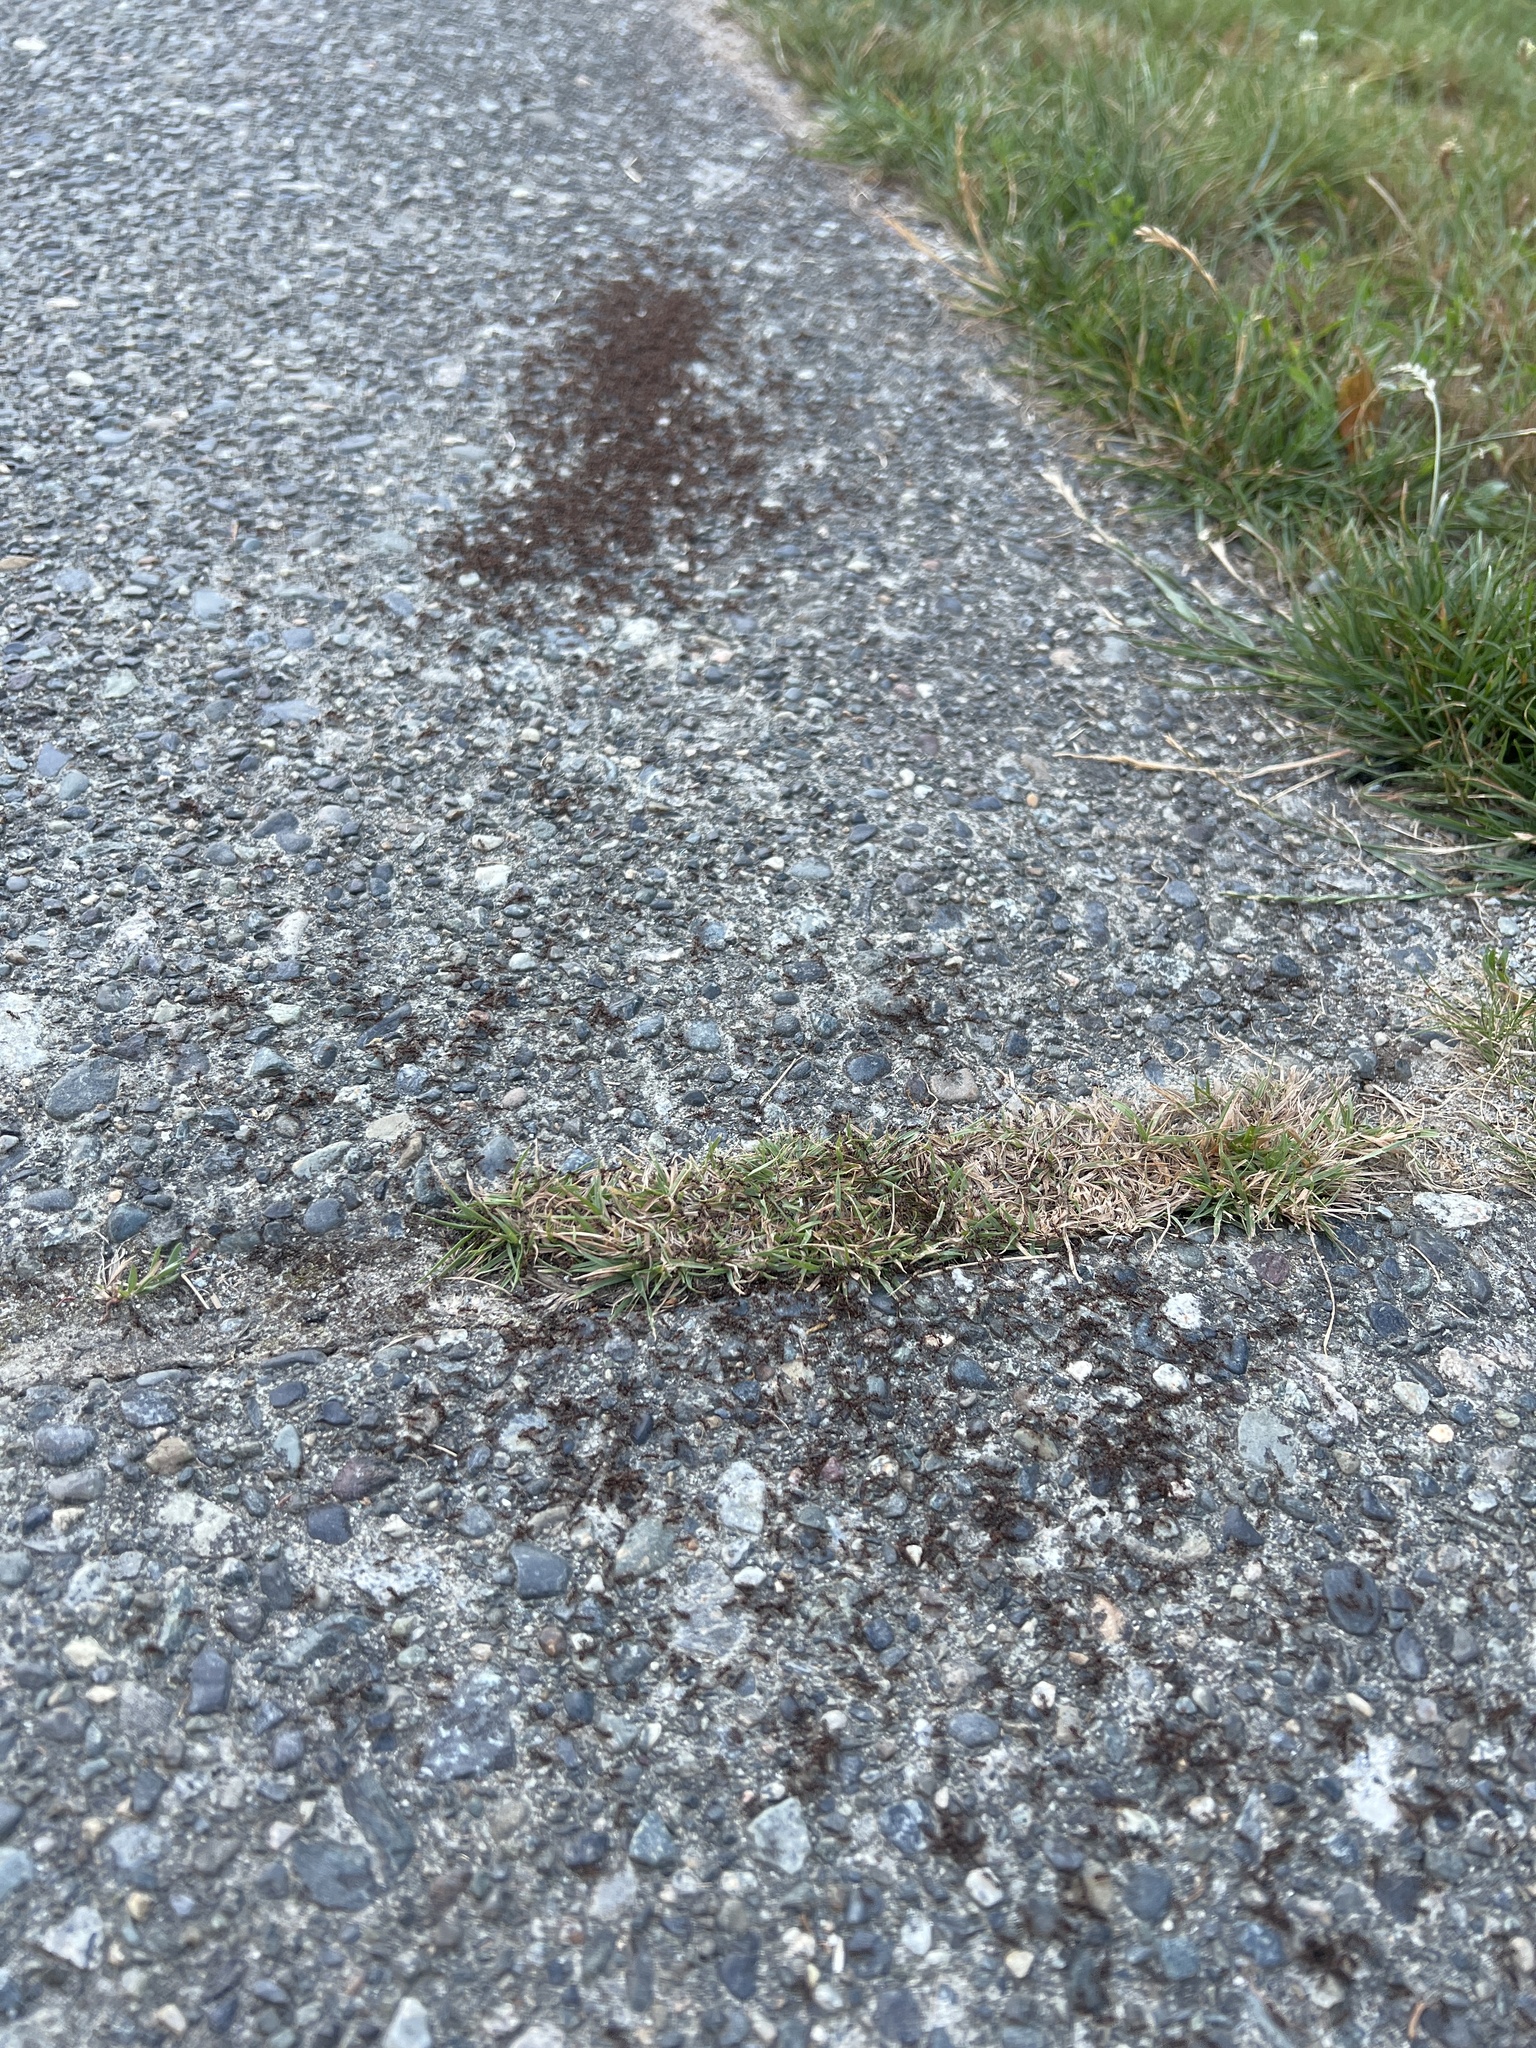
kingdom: Animalia
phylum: Arthropoda
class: Insecta
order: Hymenoptera
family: Formicidae
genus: Tetramorium
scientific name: Tetramorium immigrans
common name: Pavement ant
